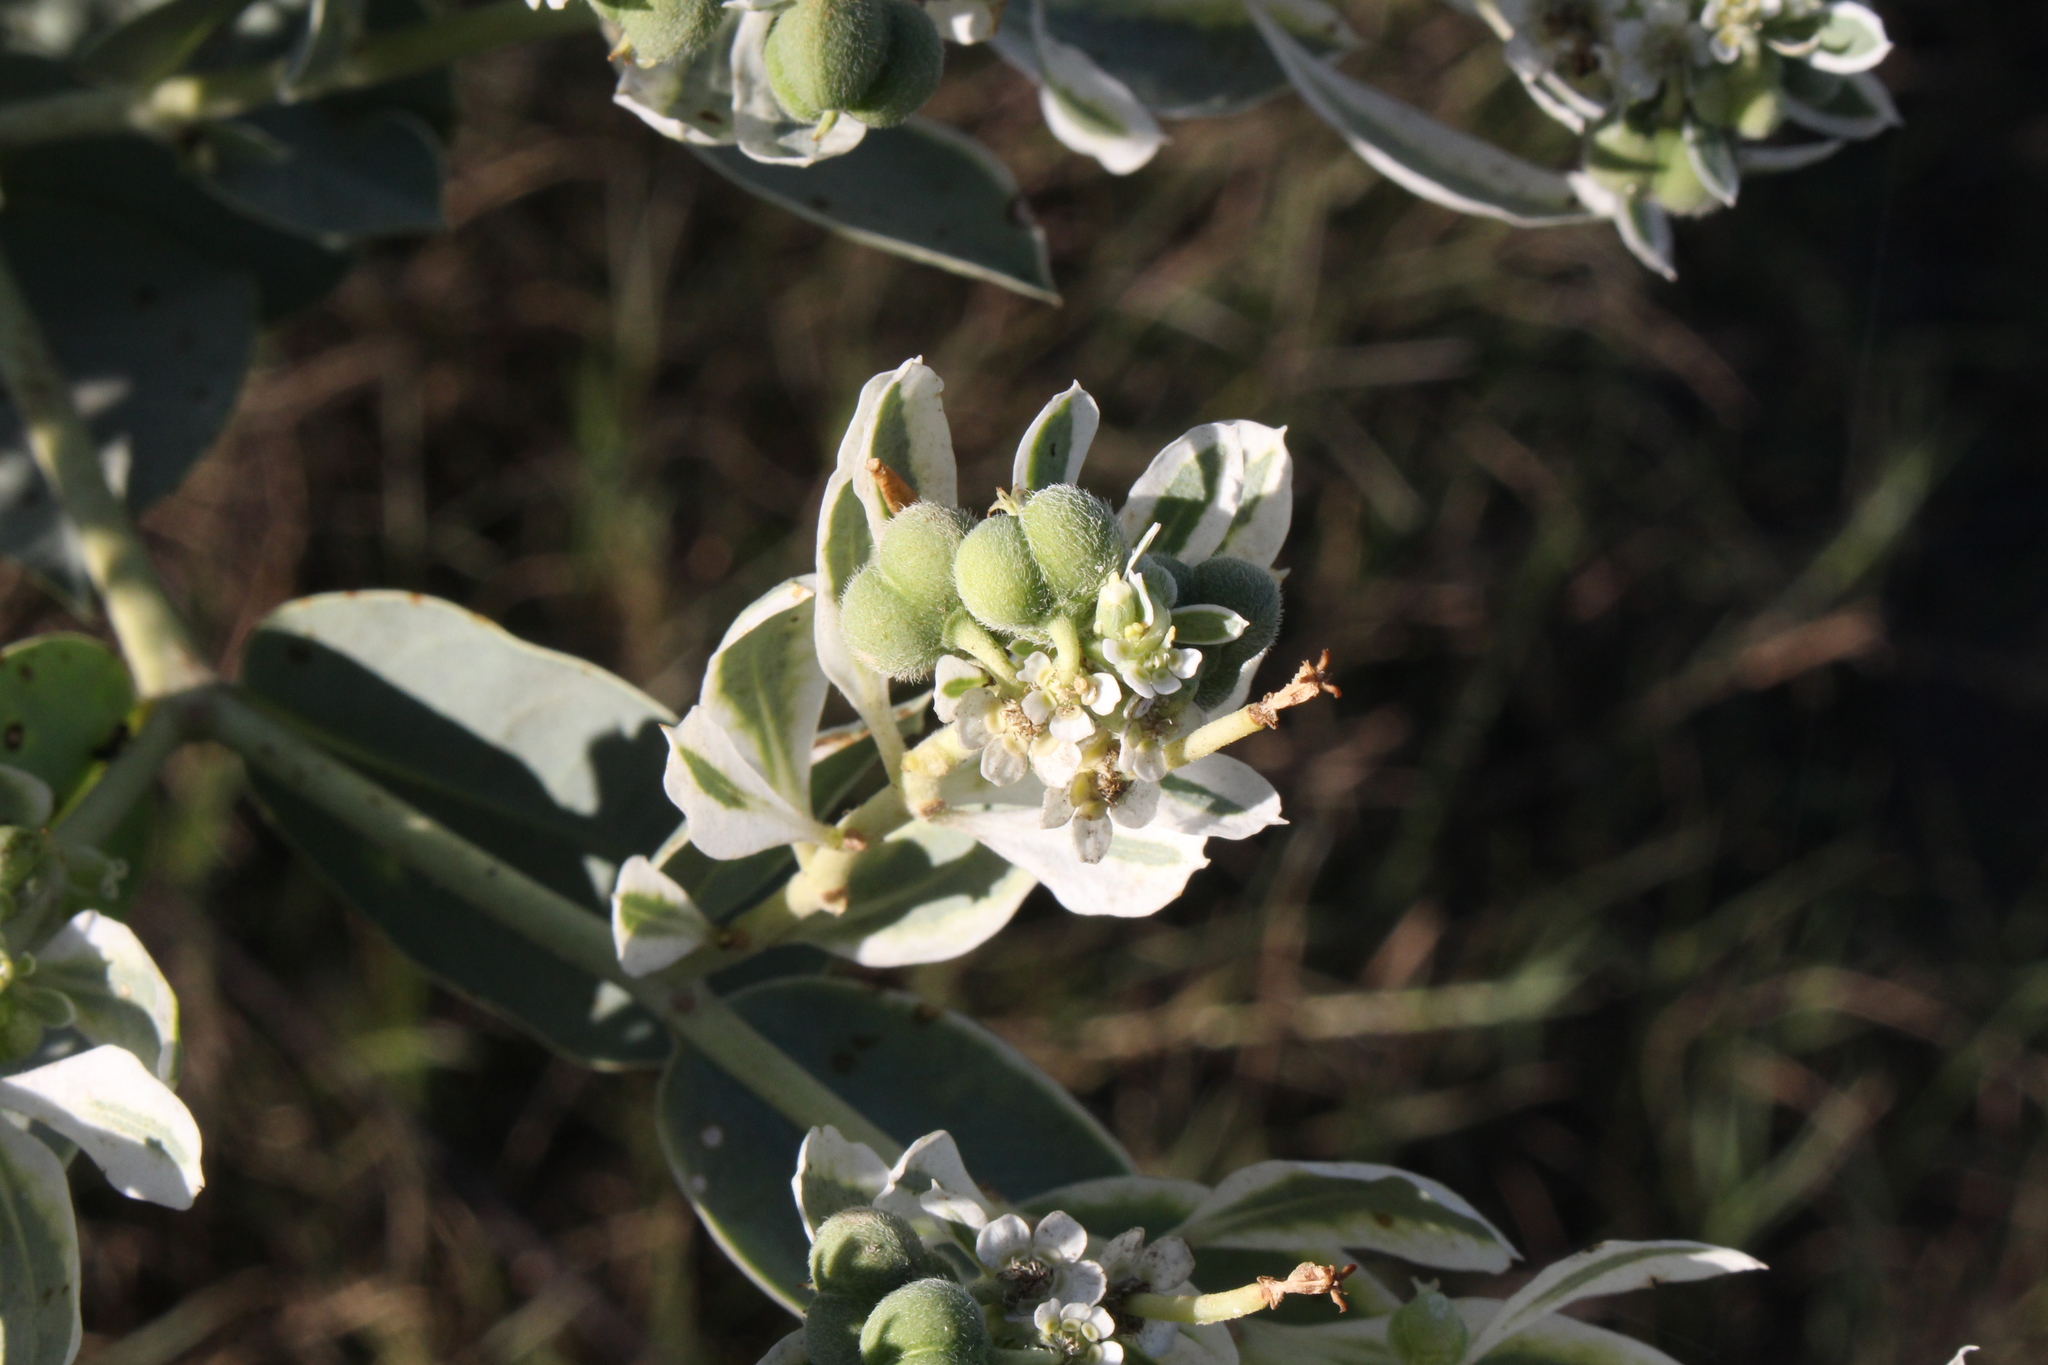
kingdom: Plantae
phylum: Tracheophyta
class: Magnoliopsida
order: Malpighiales
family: Euphorbiaceae
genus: Euphorbia
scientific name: Euphorbia marginata
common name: Ghostweed
